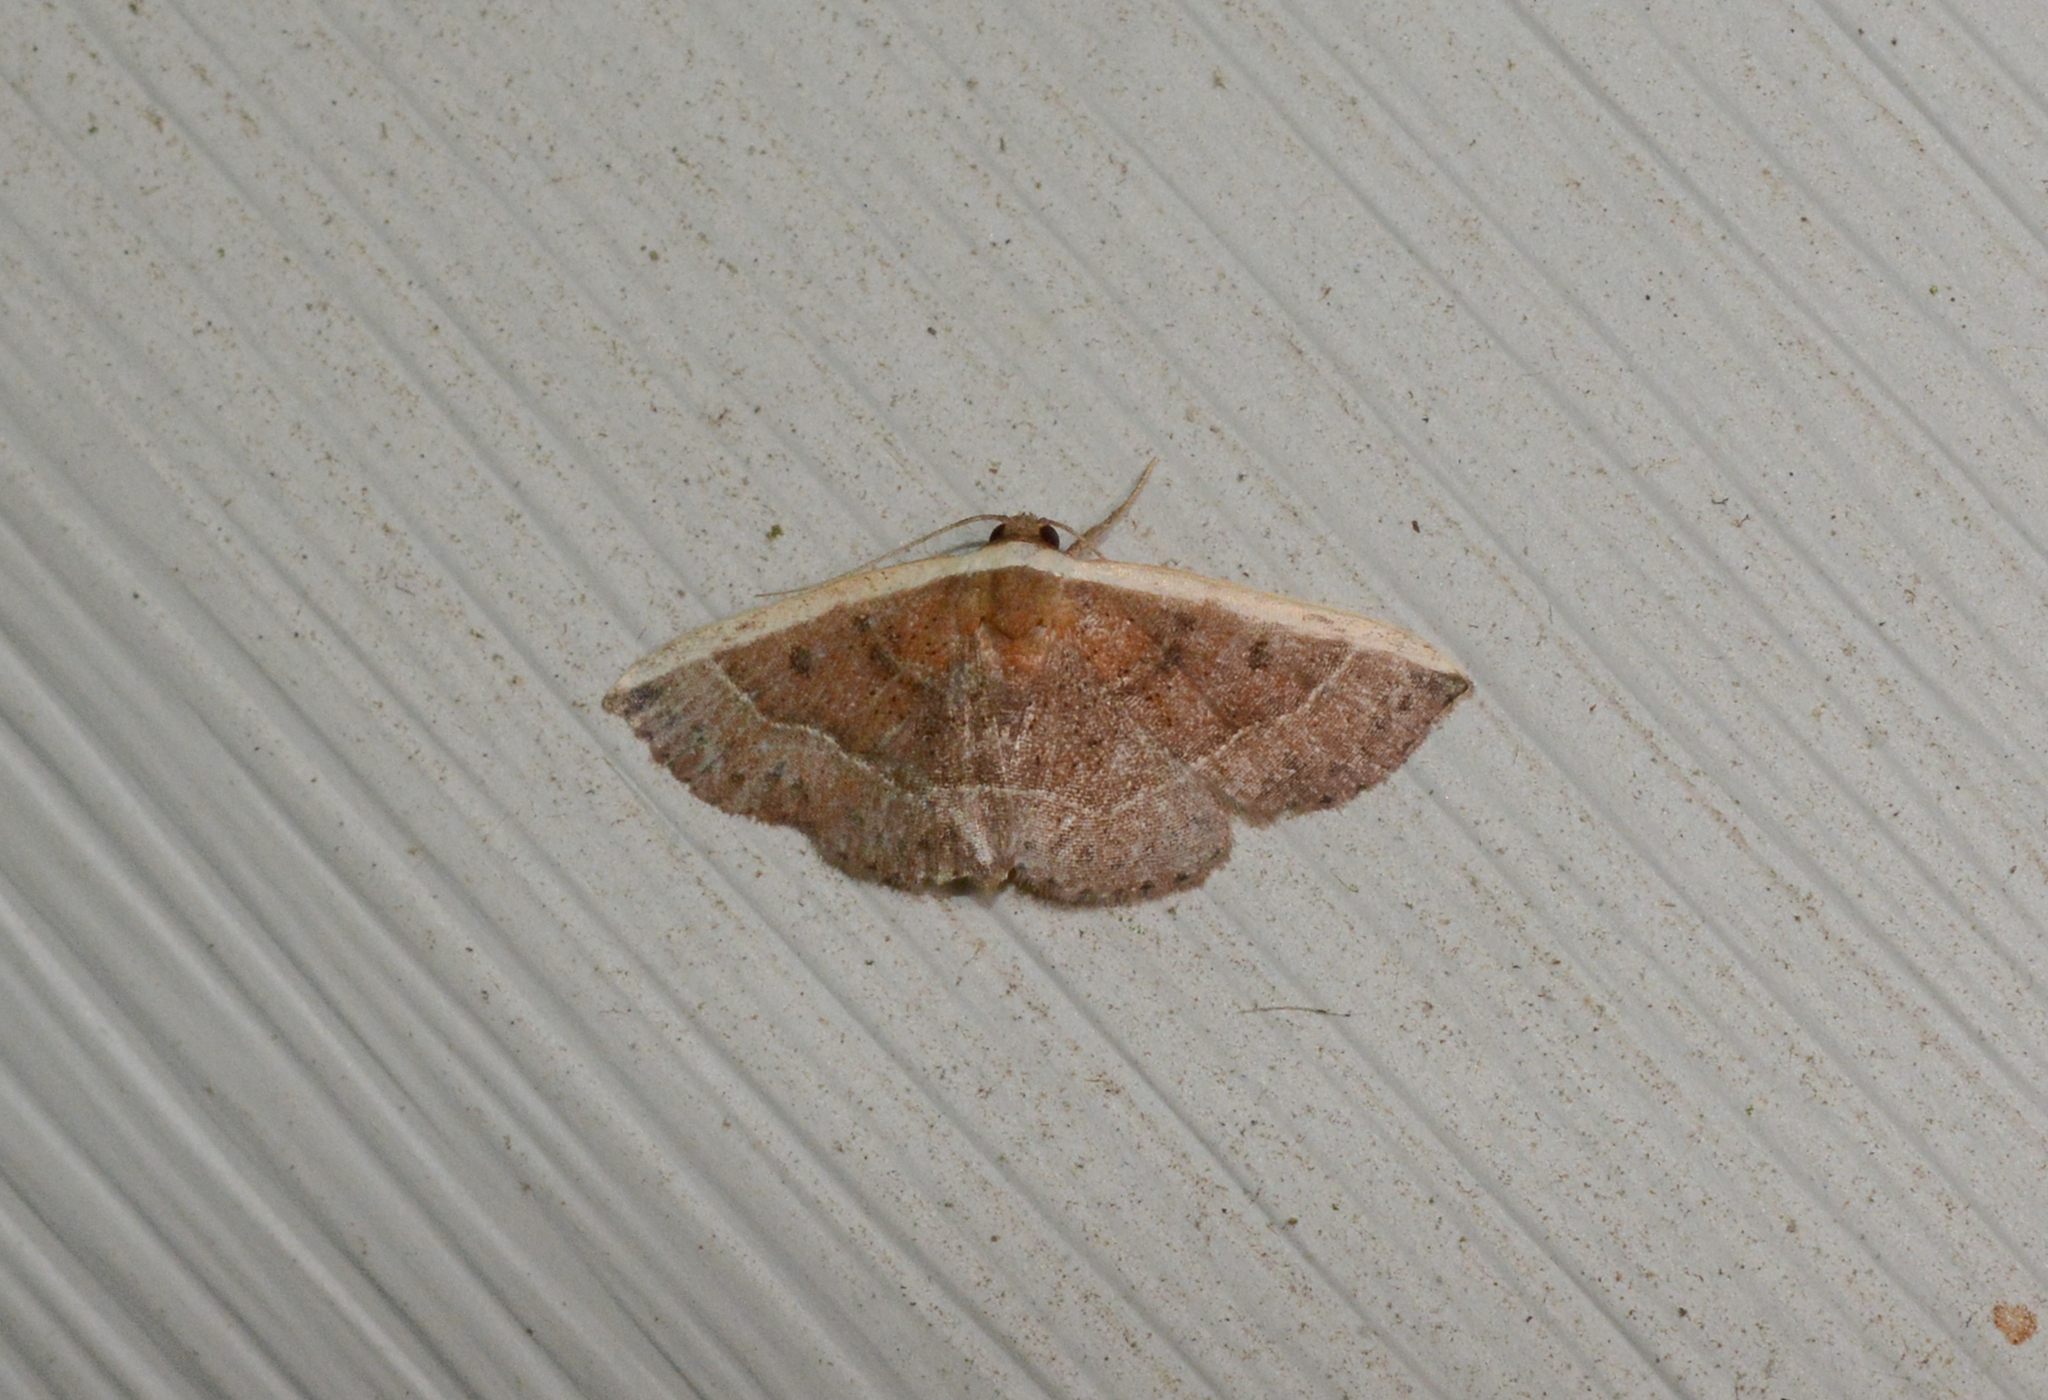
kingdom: Animalia
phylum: Arthropoda
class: Insecta
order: Lepidoptera
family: Noctuidae
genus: Ozarba
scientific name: Ozarba albocostaliata
